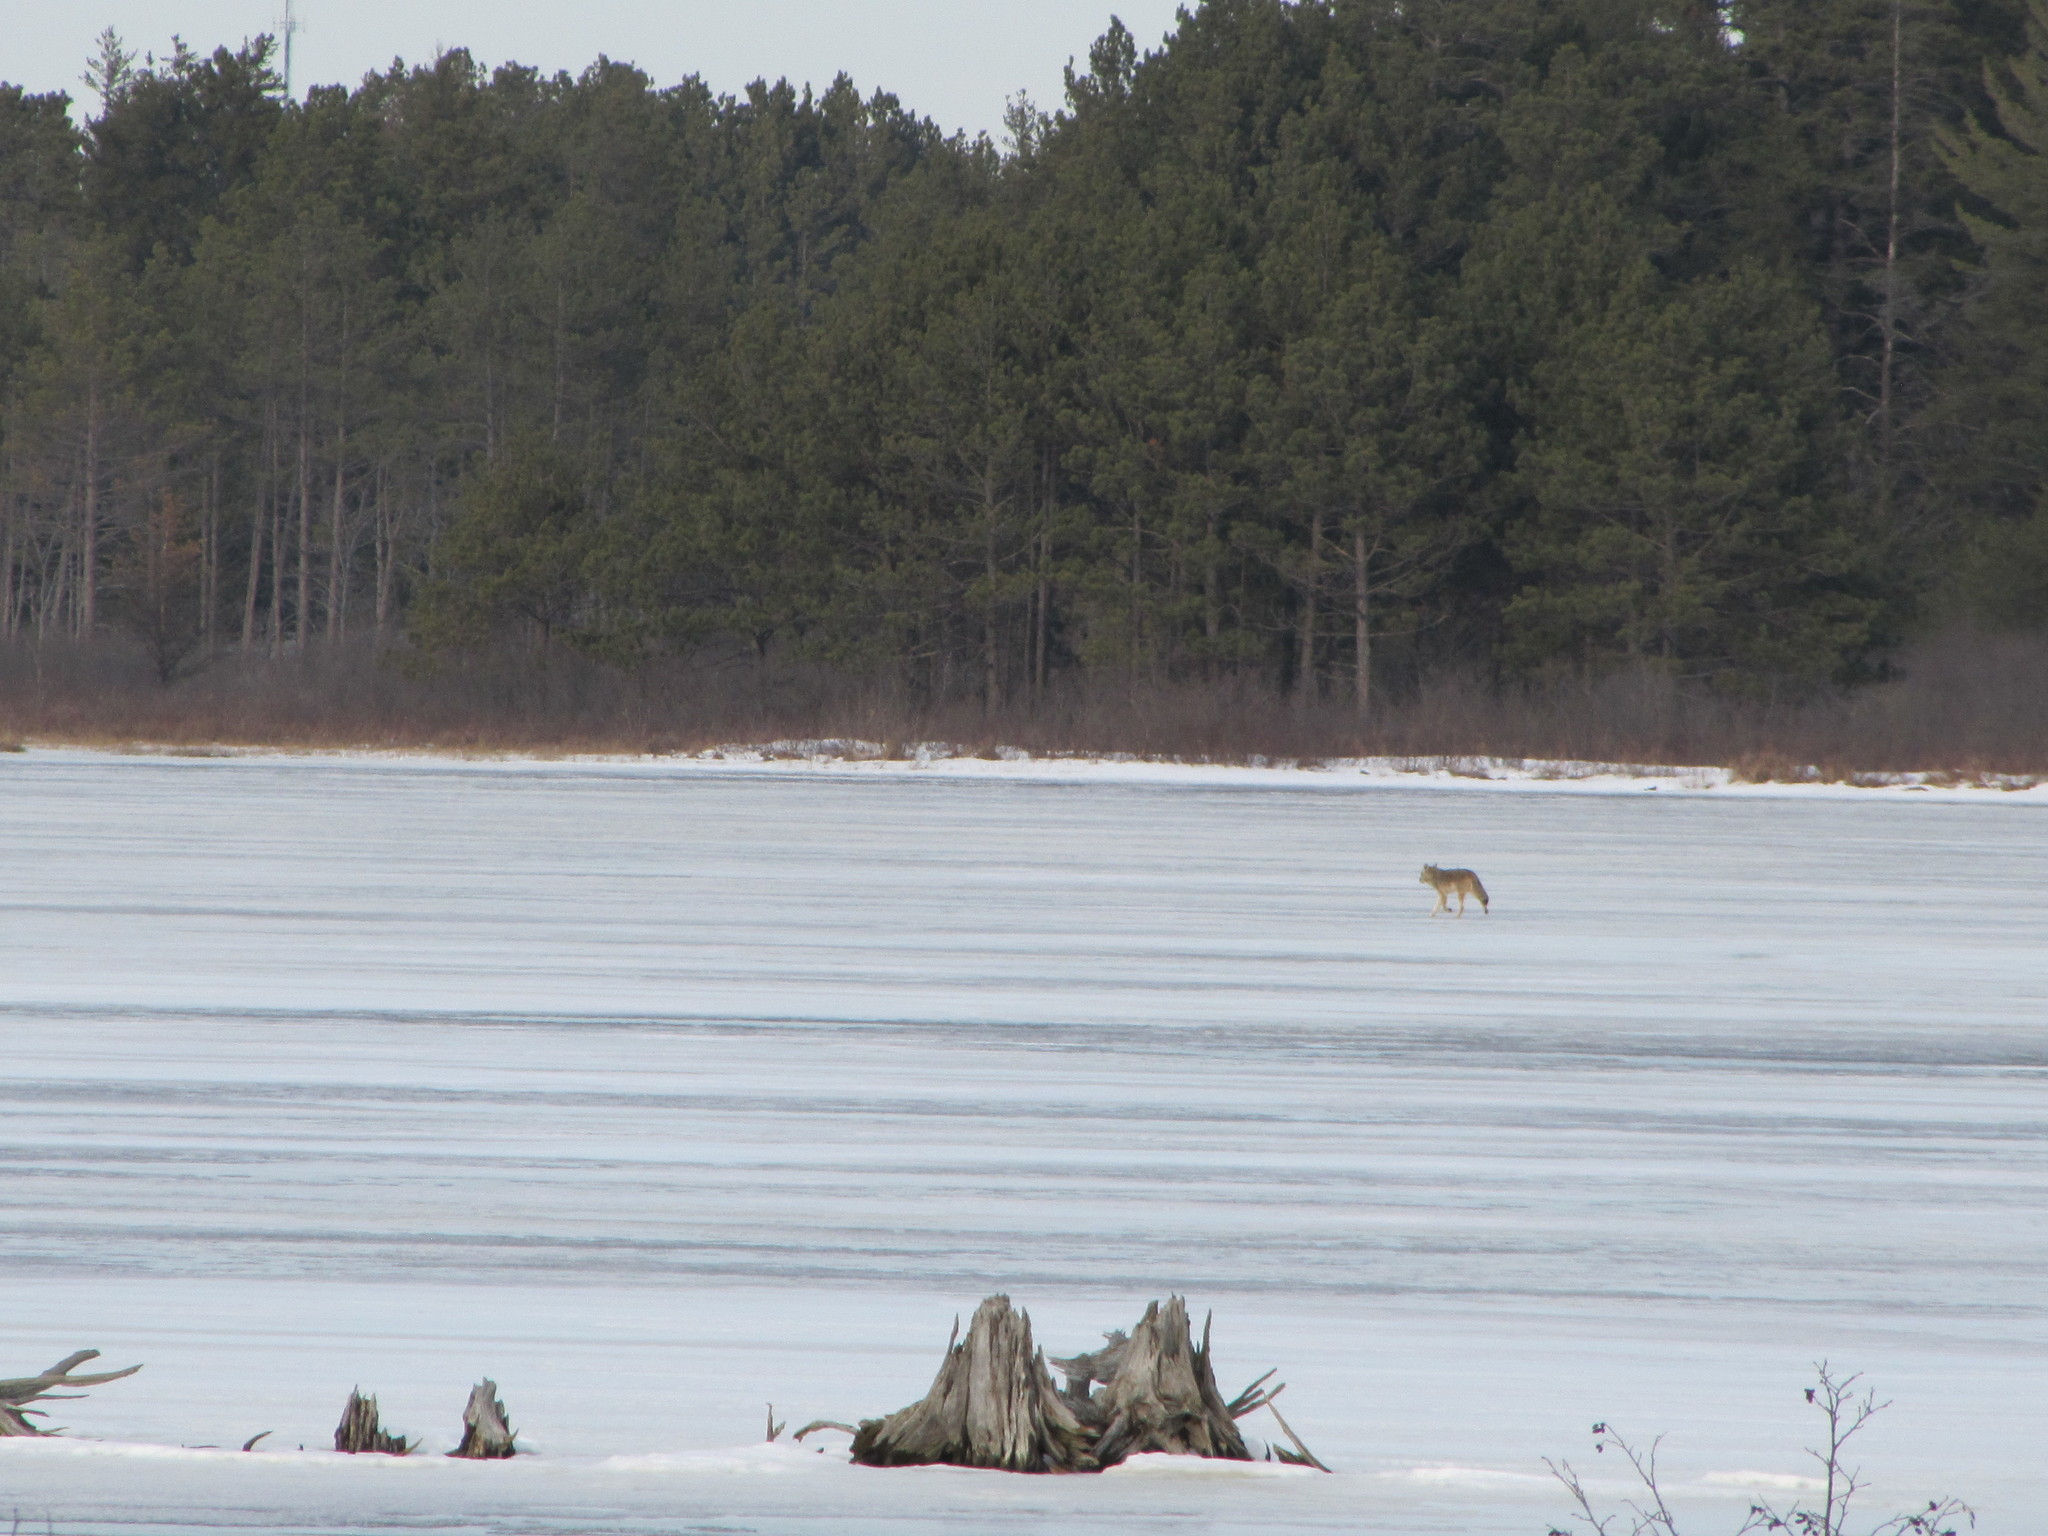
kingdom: Animalia
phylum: Chordata
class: Mammalia
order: Carnivora
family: Canidae
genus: Canis
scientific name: Canis latrans
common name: Coyote
